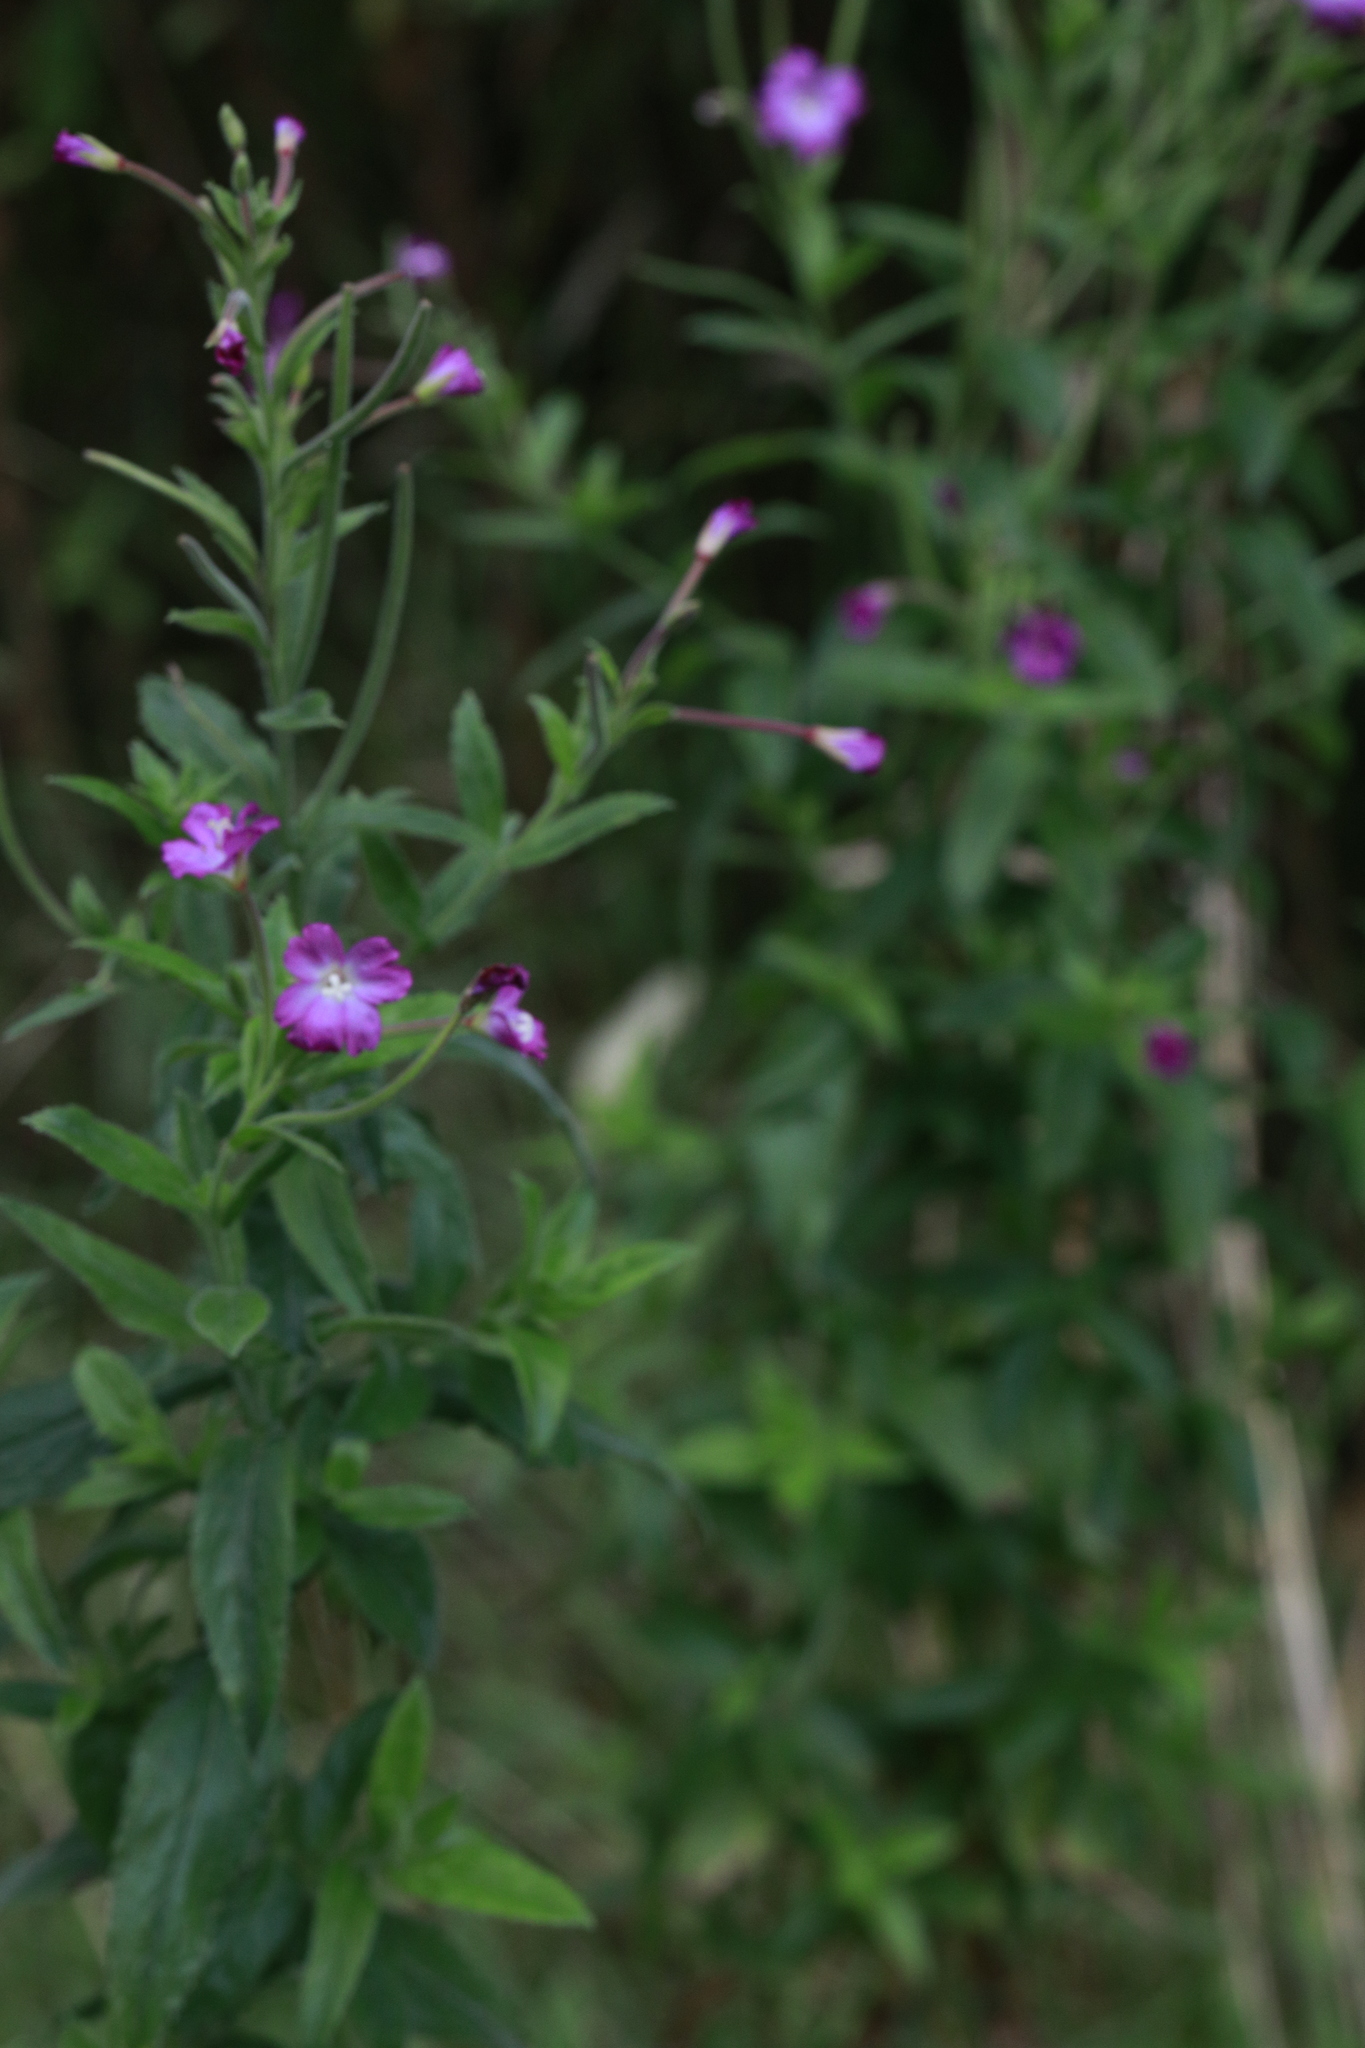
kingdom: Plantae
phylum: Tracheophyta
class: Magnoliopsida
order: Myrtales
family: Onagraceae
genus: Epilobium
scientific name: Epilobium hirsutum
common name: Great willowherb
